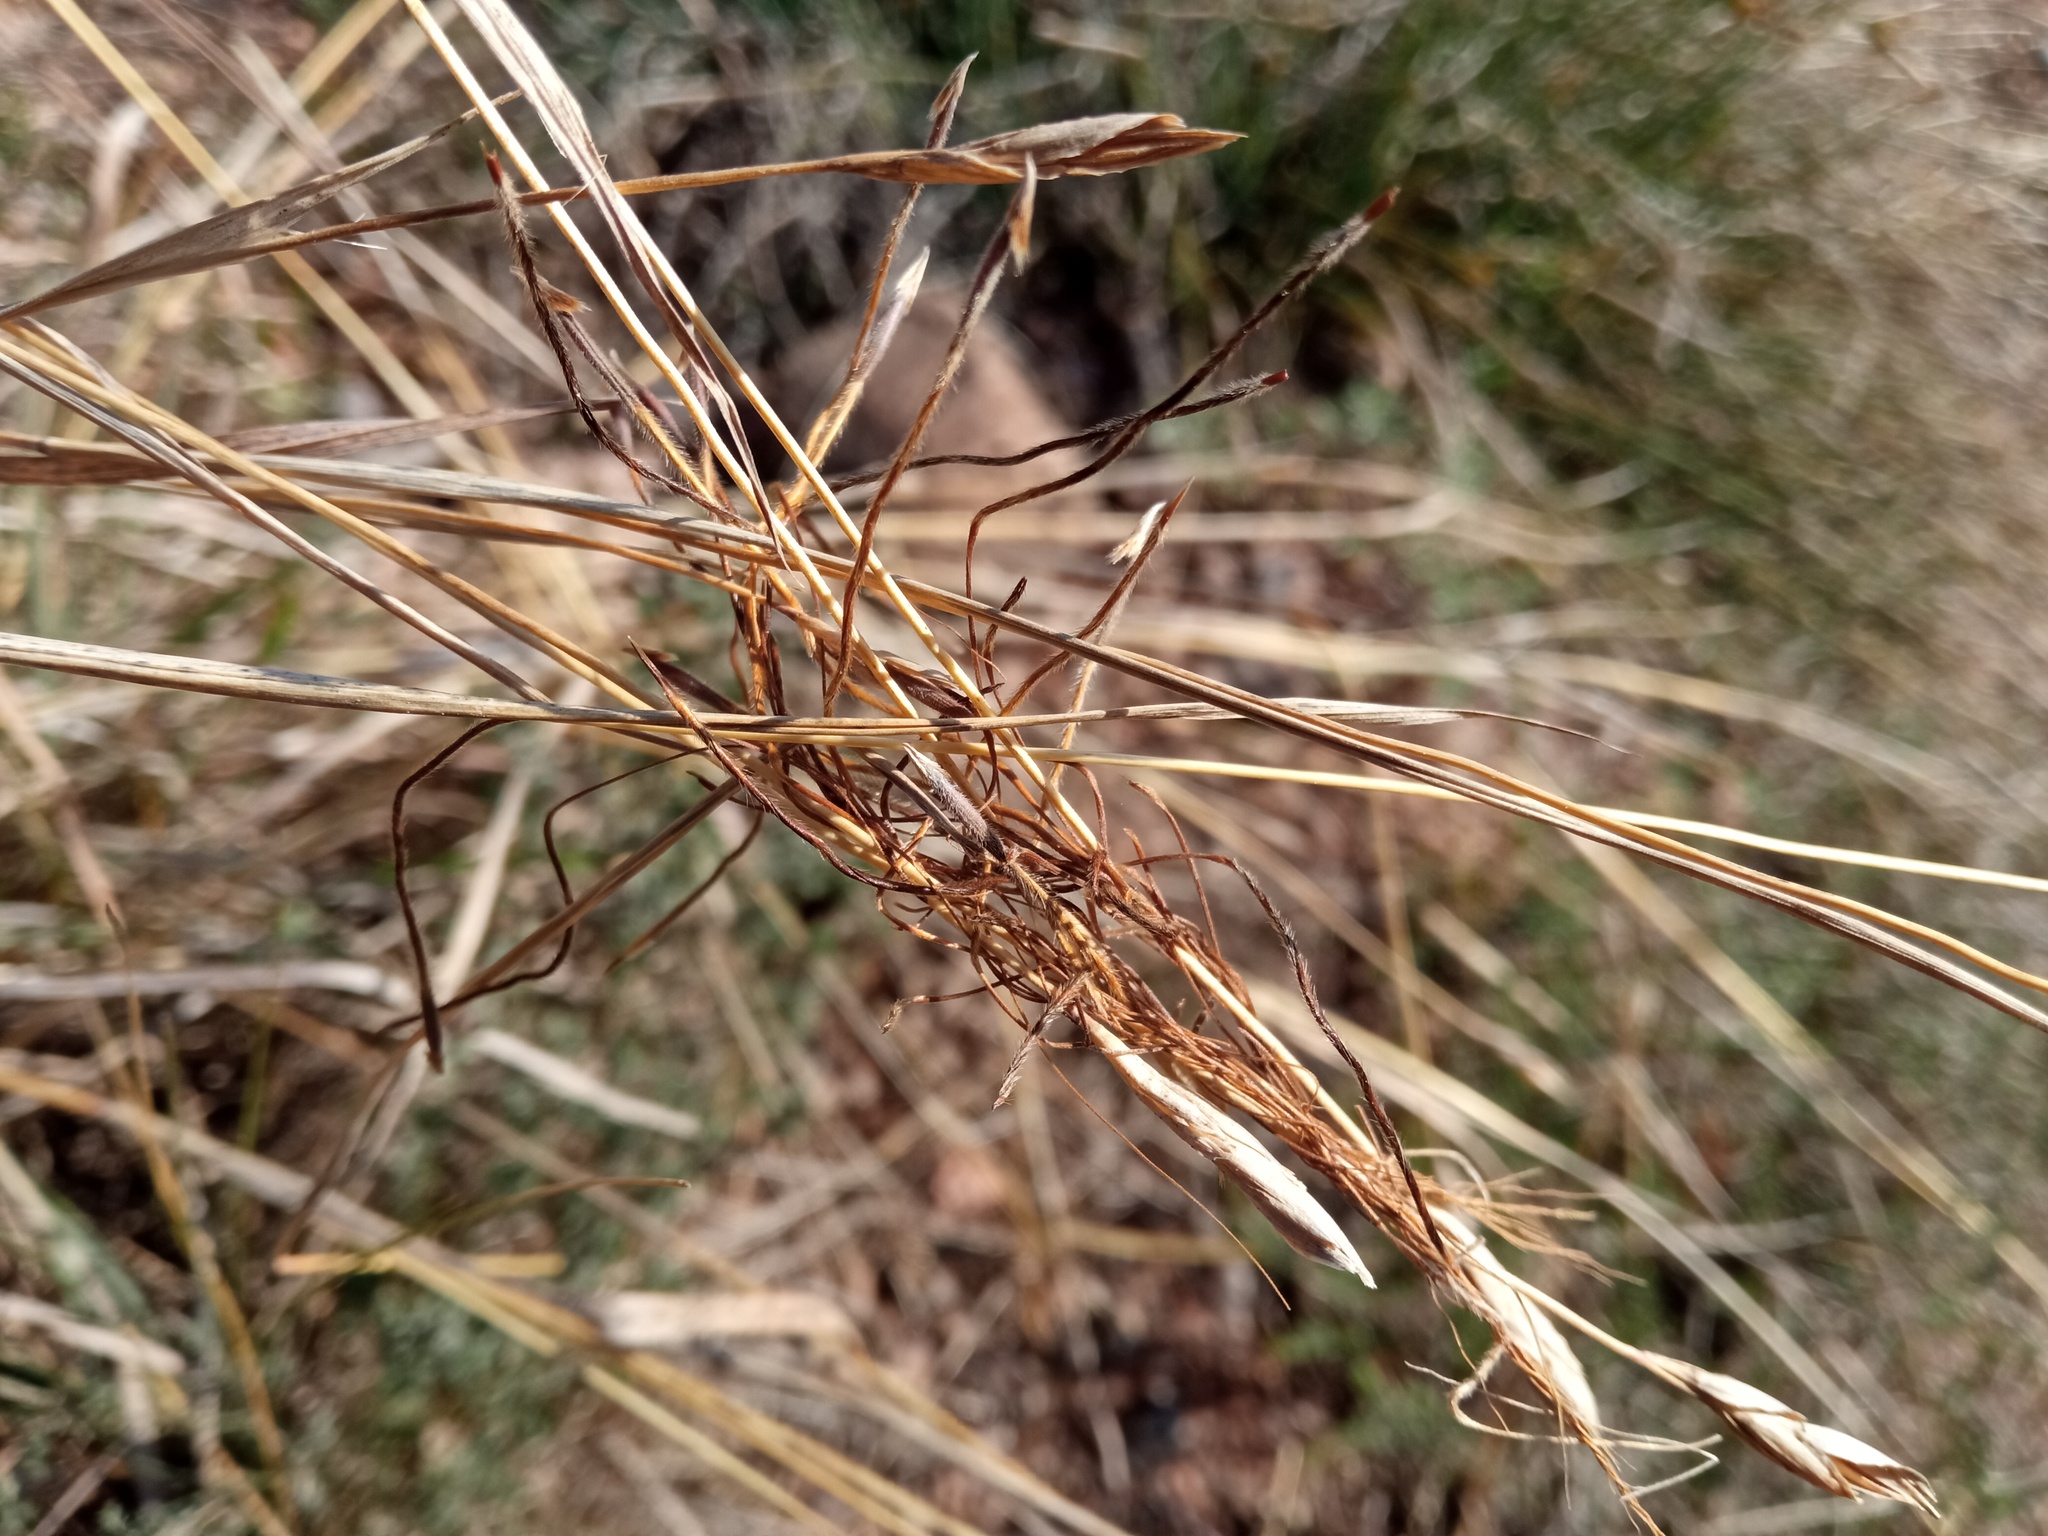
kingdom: Plantae
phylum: Tracheophyta
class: Liliopsida
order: Poales
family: Poaceae
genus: Heteropogon
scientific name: Heteropogon contortus
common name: Tanglehead
